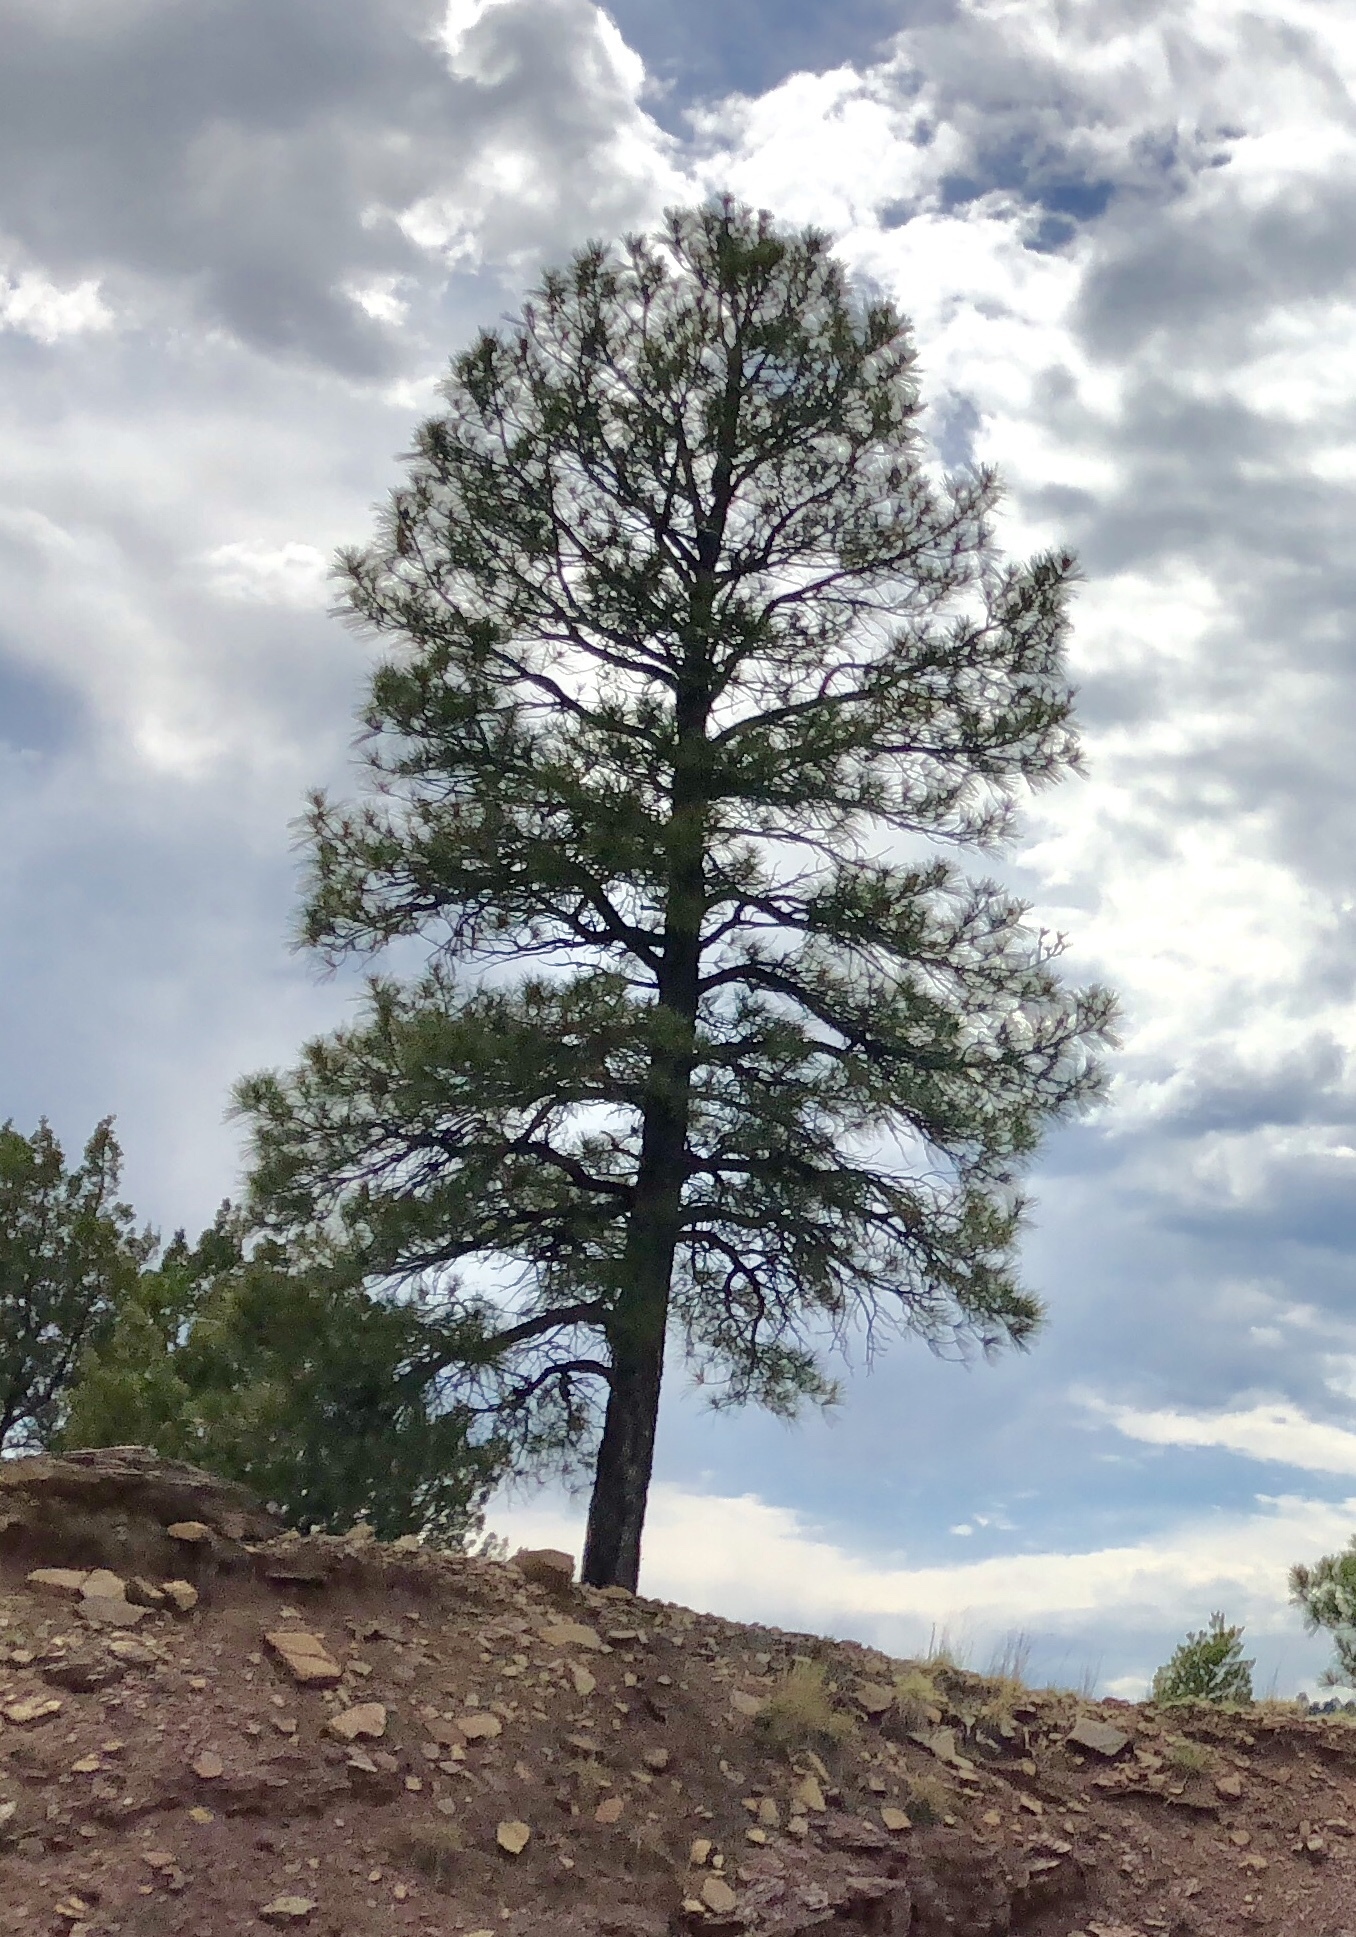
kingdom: Plantae
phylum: Tracheophyta
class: Pinopsida
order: Pinales
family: Pinaceae
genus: Pinus
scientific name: Pinus ponderosa
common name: Western yellow-pine
